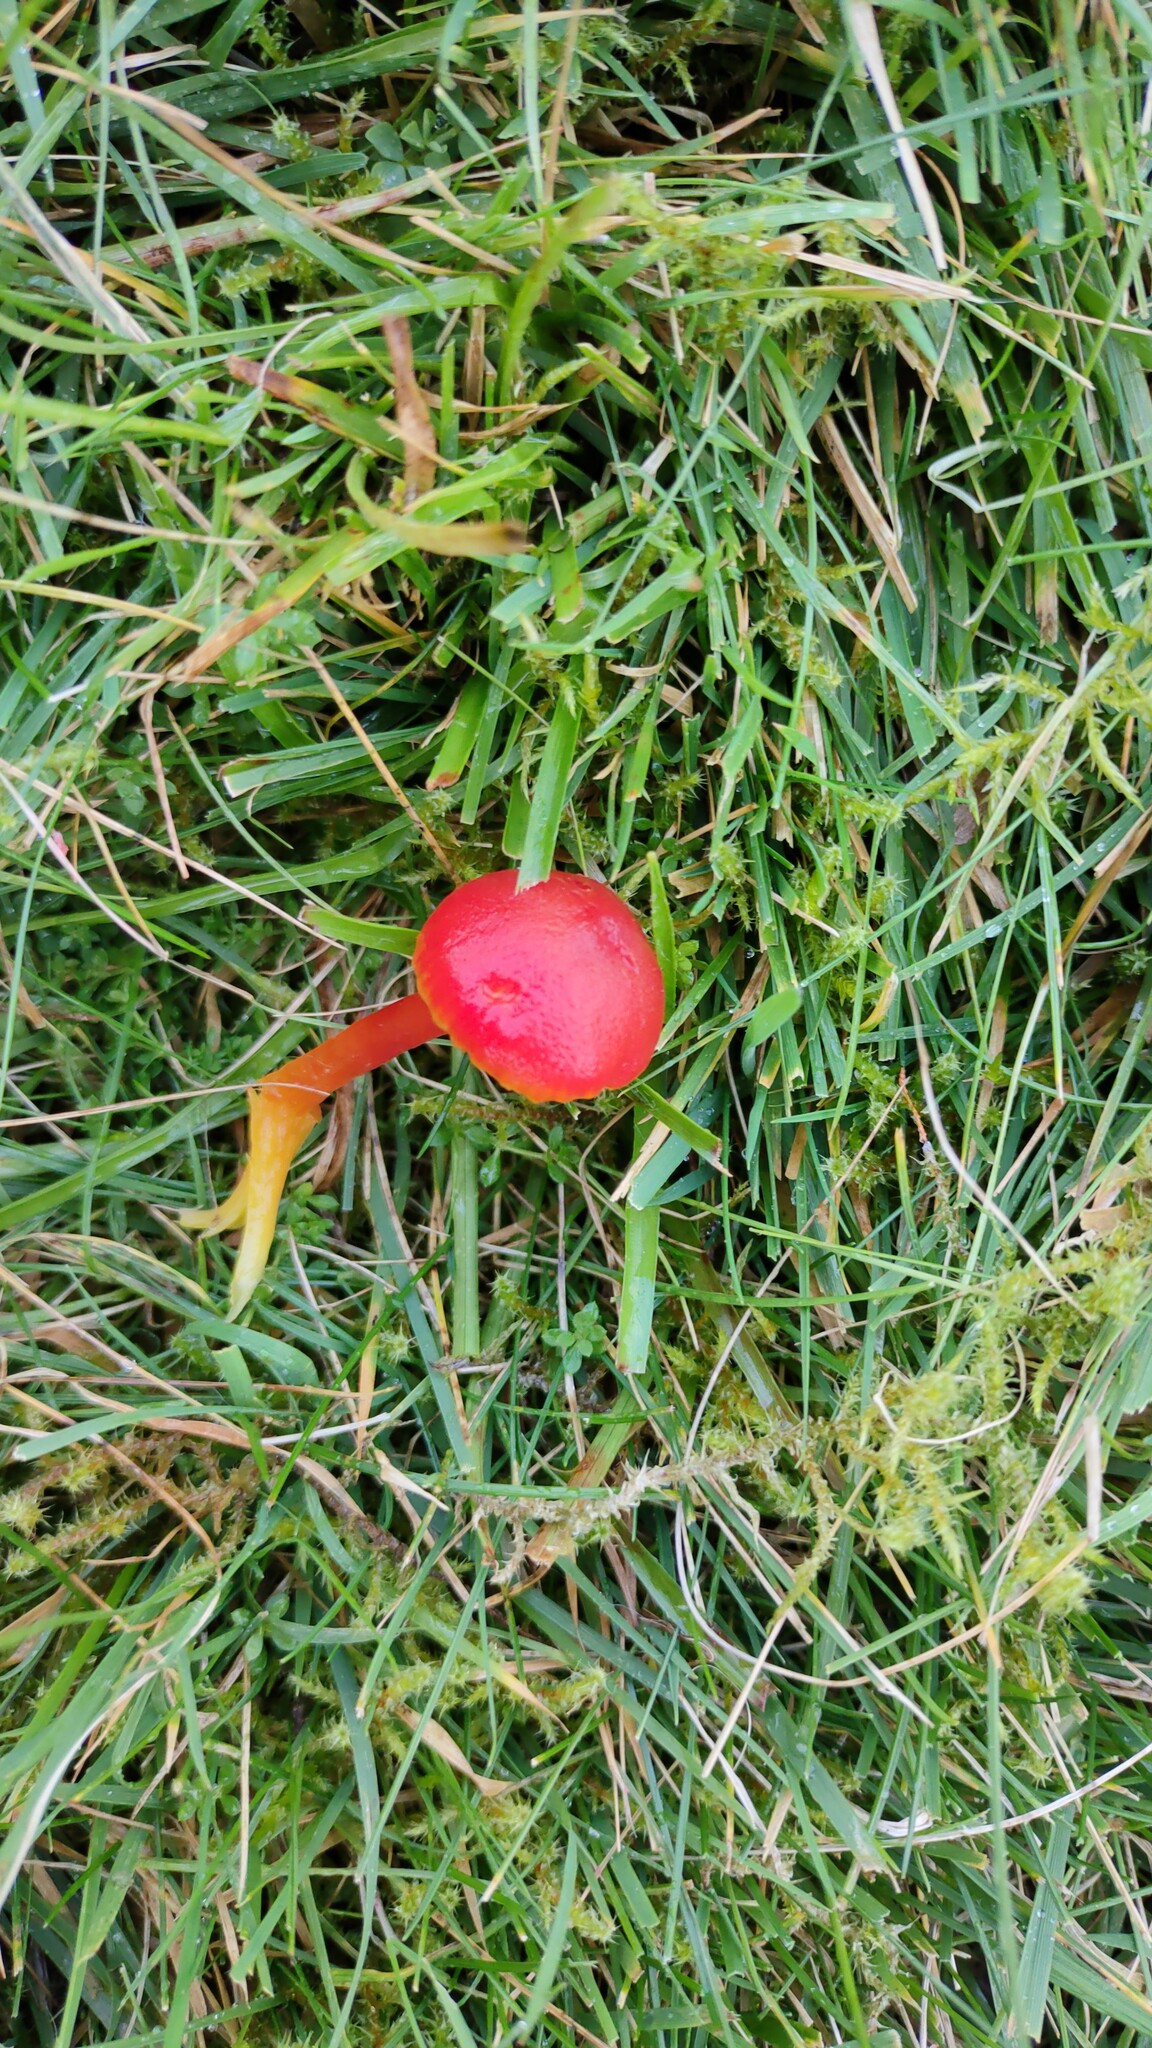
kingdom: Fungi
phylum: Basidiomycota
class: Agaricomycetes
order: Agaricales
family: Hygrophoraceae
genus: Hygrocybe
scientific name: Hygrocybe coccinea
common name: Scarlet hood
